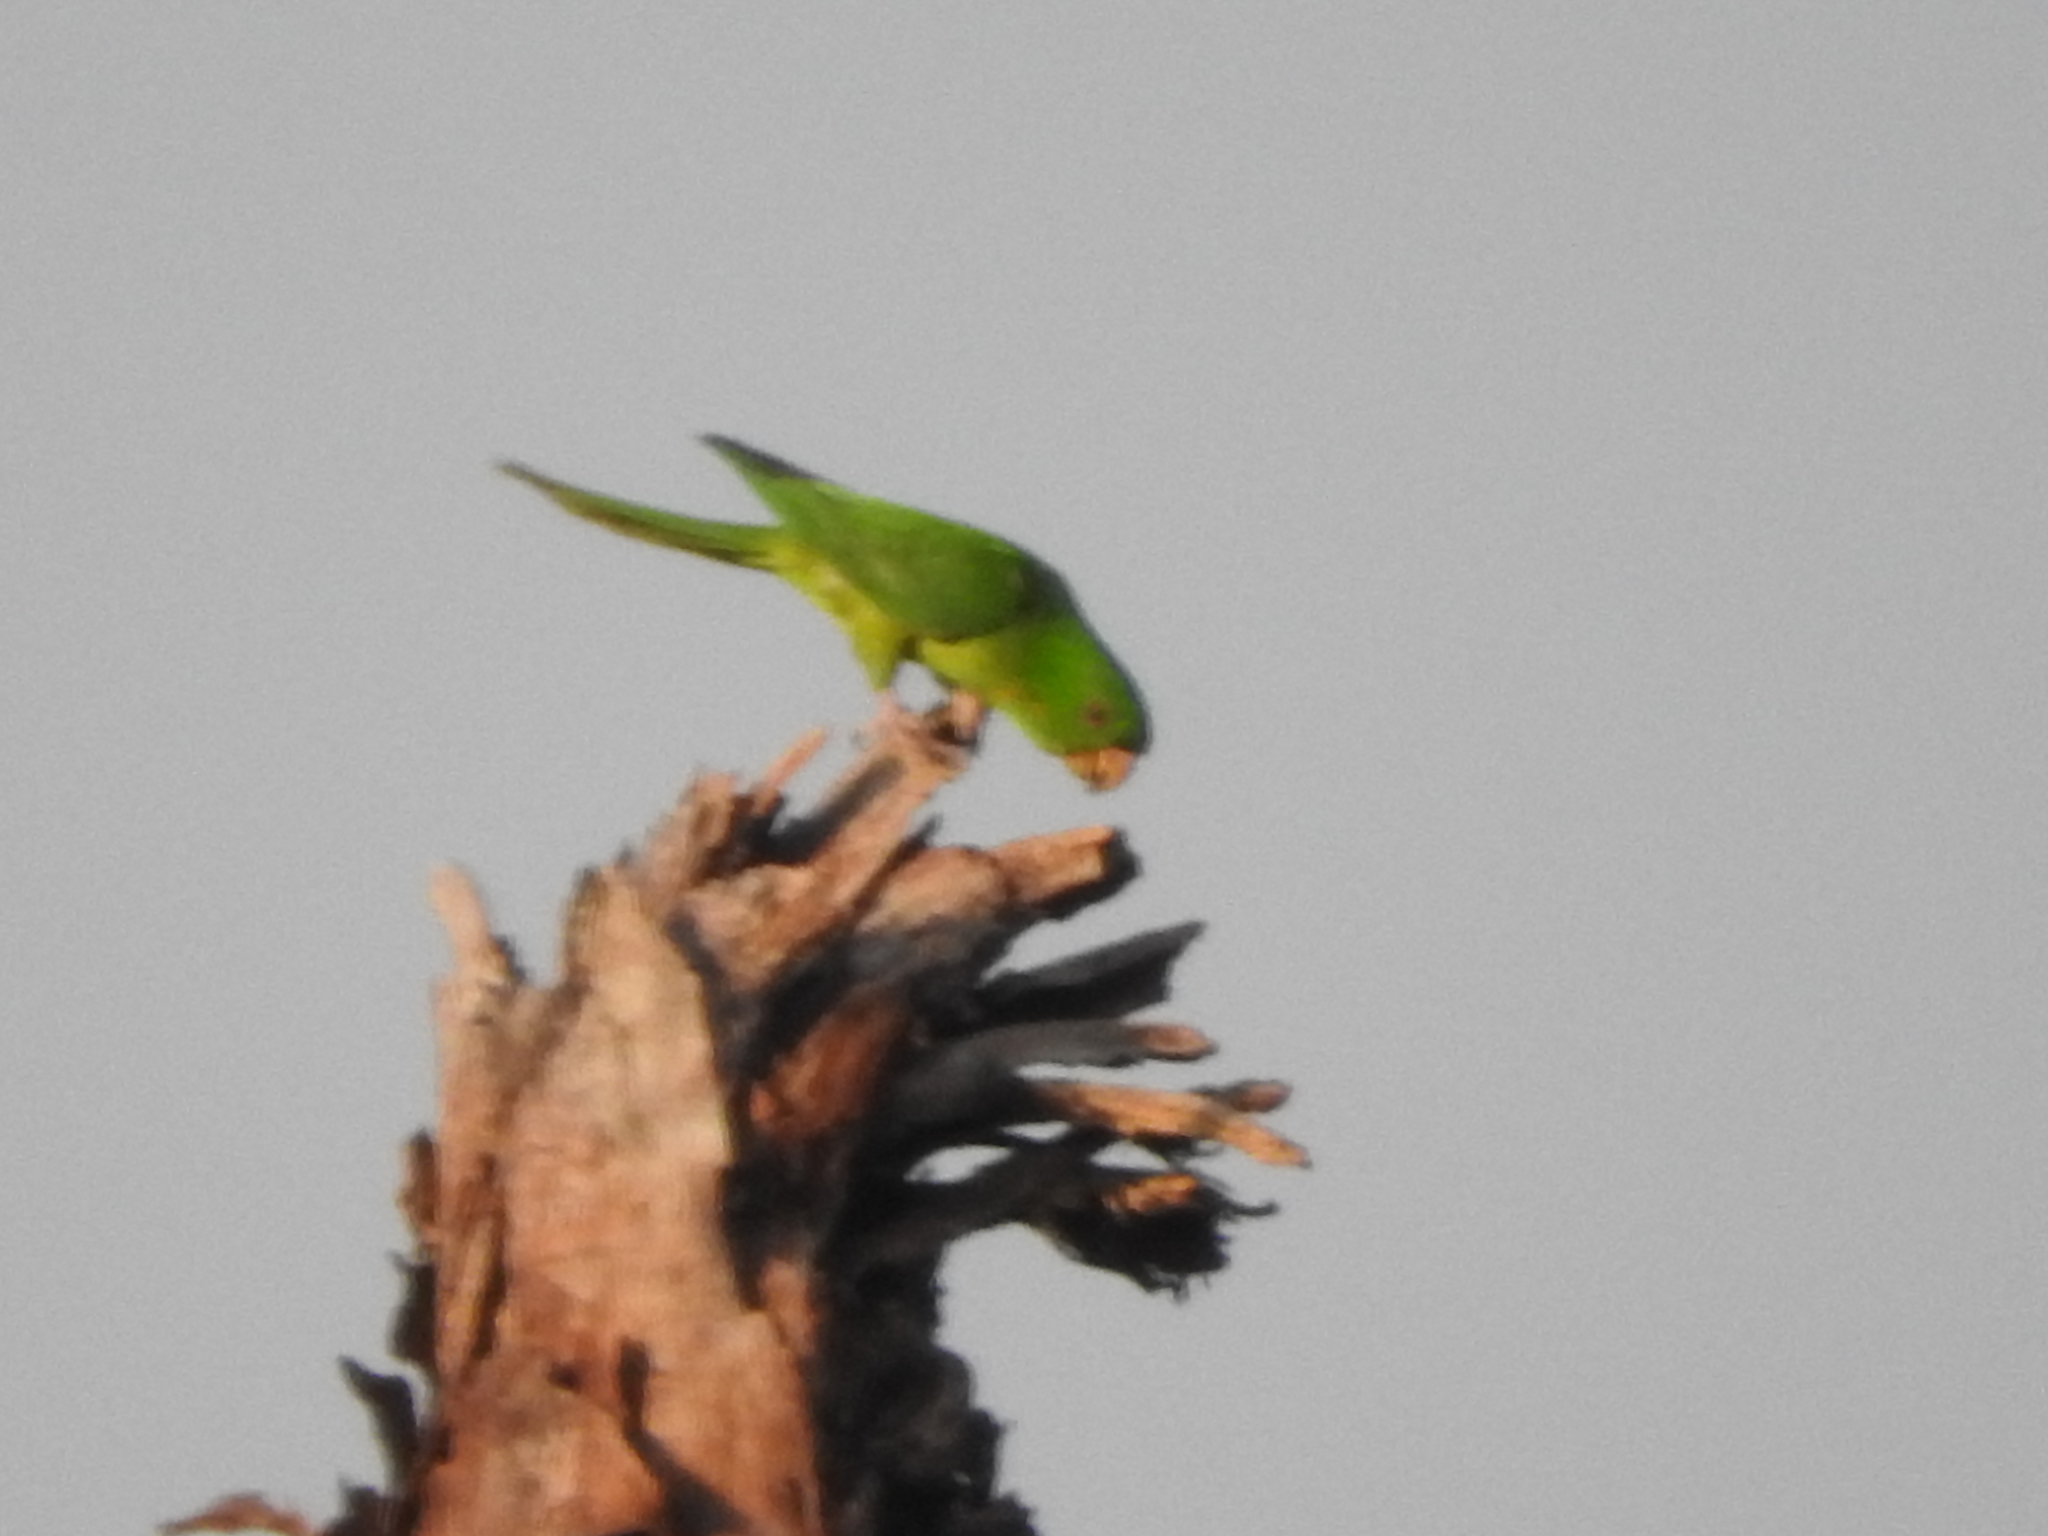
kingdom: Animalia
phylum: Chordata
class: Aves
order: Psittaciformes
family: Psittacidae
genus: Aratinga
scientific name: Aratinga holochlora
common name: Green parakeet
